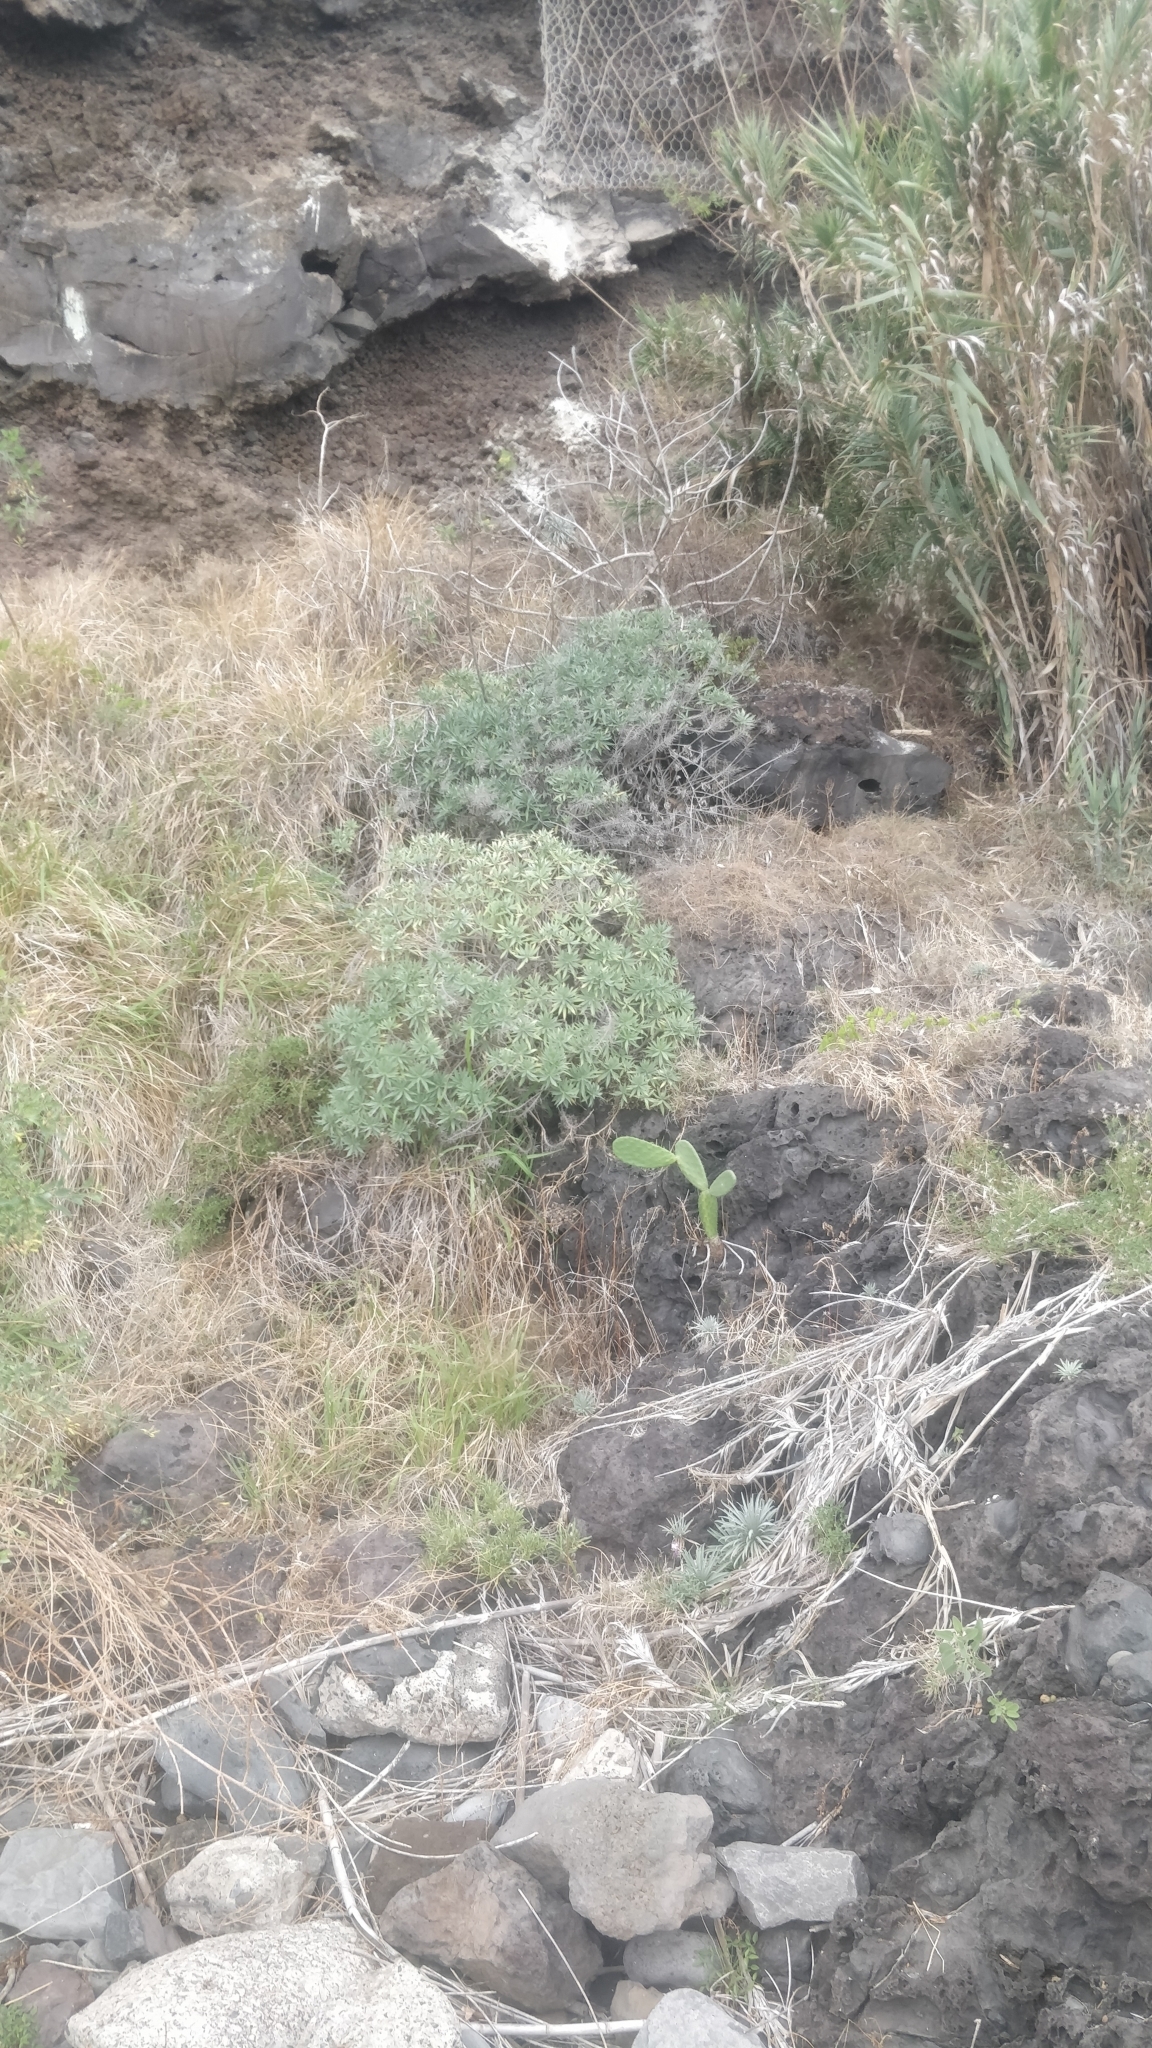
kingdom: Plantae
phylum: Tracheophyta
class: Magnoliopsida
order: Boraginales
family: Boraginaceae
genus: Echium
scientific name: Echium nervosum
